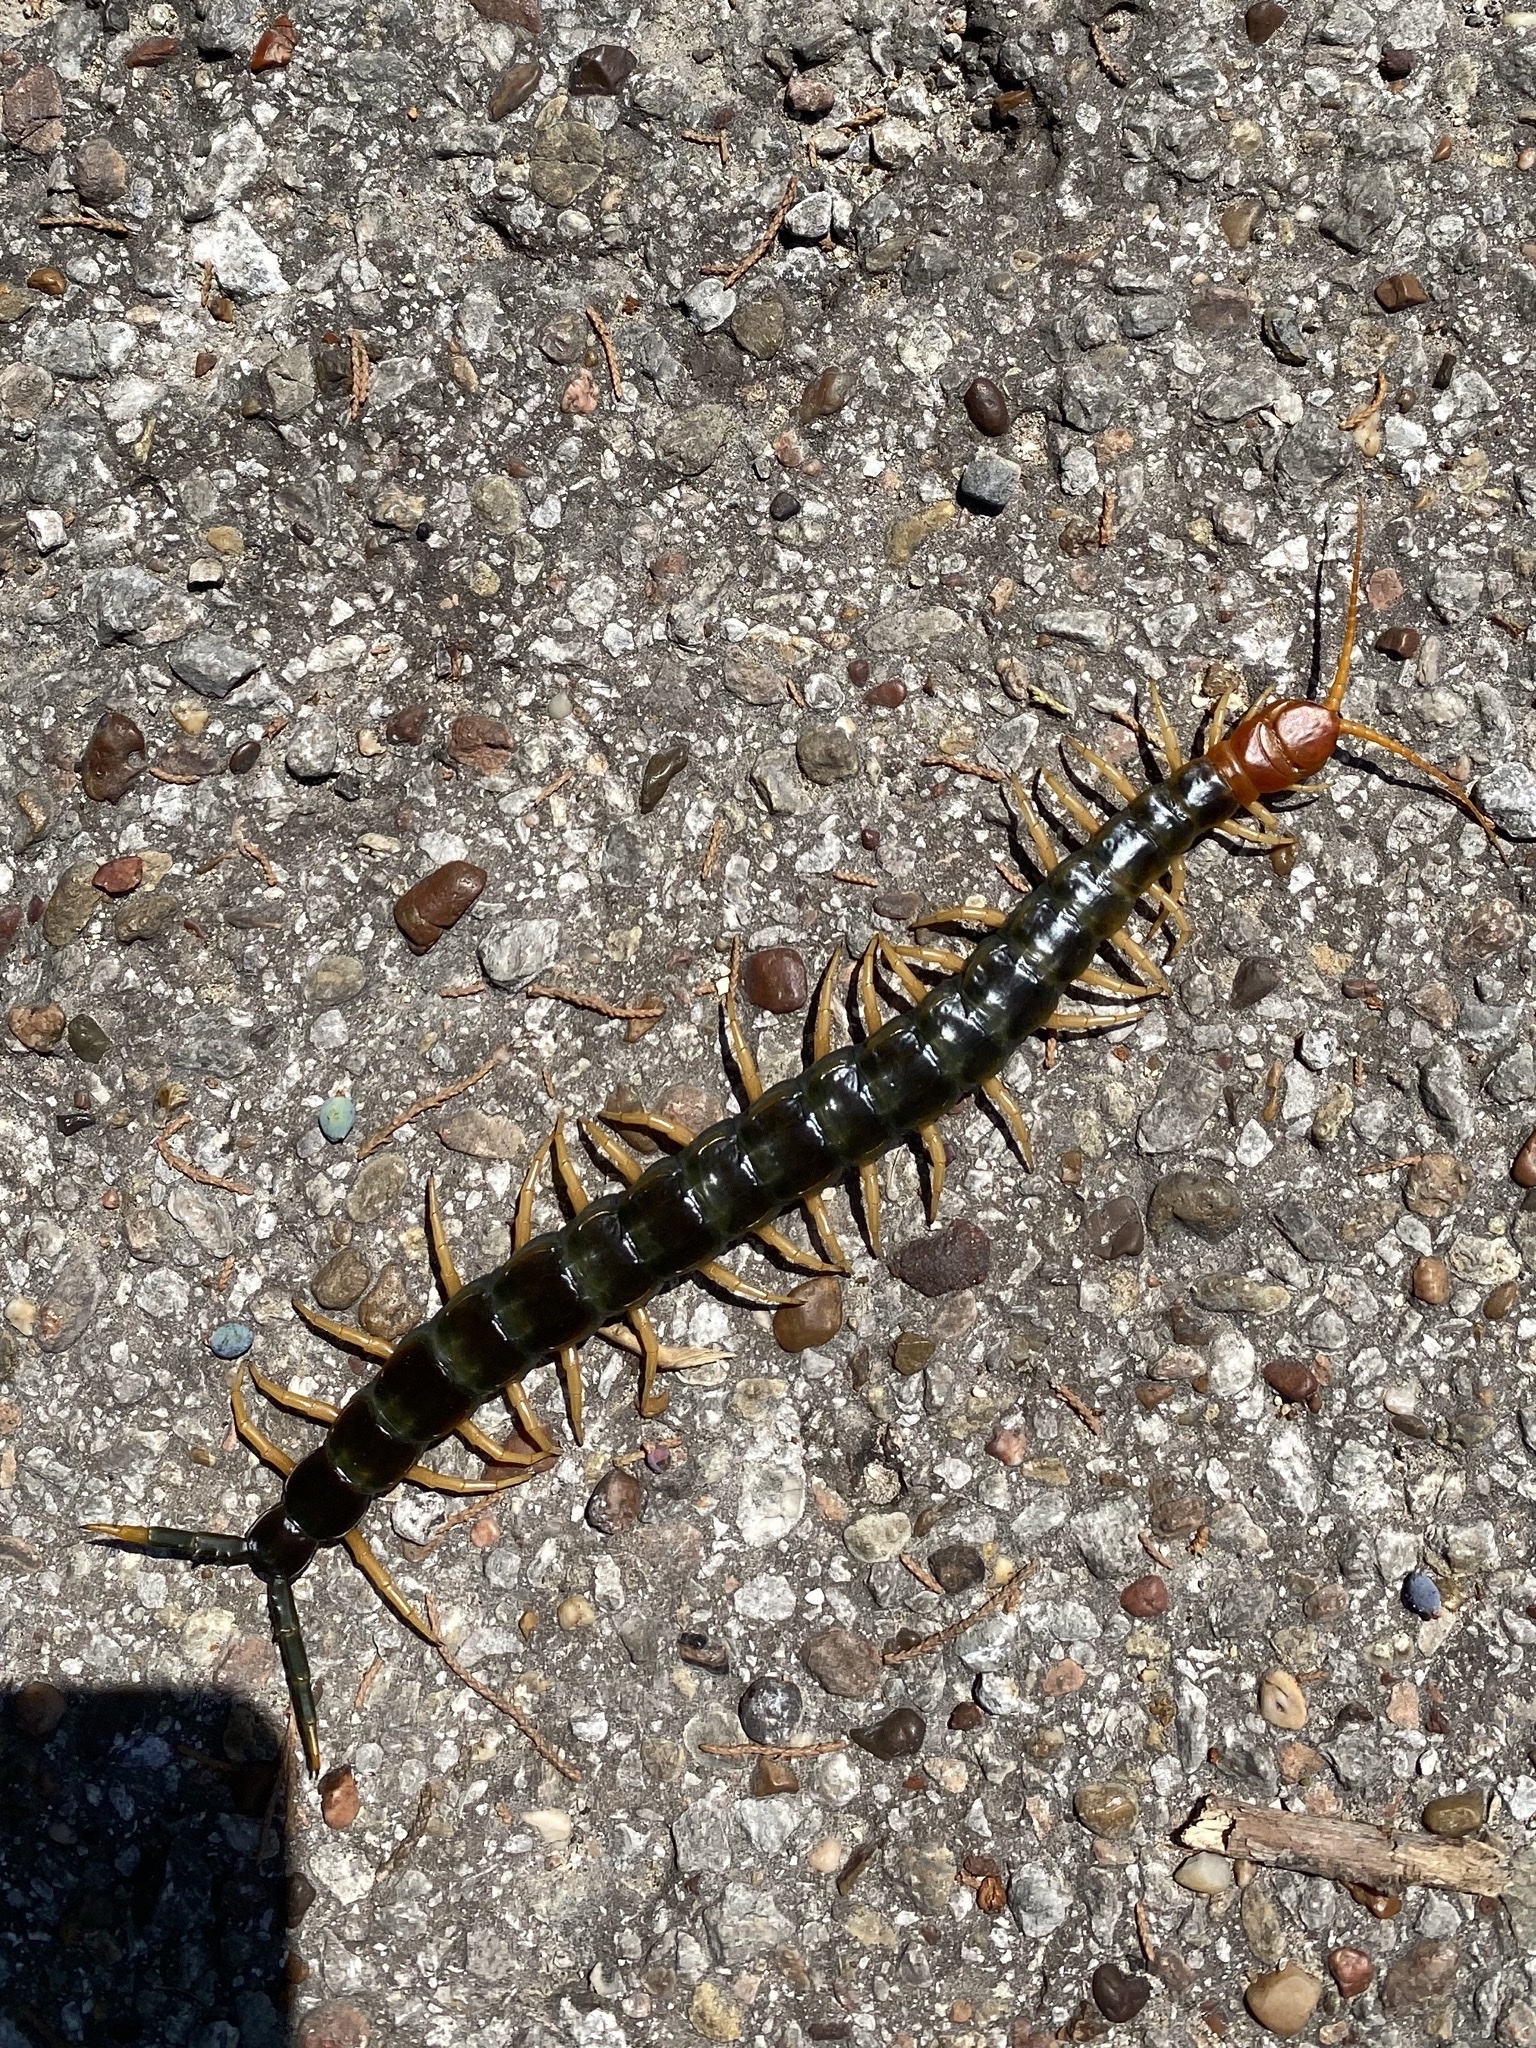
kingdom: Animalia
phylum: Arthropoda
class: Chilopoda
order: Scolopendromorpha
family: Scolopendridae
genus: Scolopendra
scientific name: Scolopendra heros
